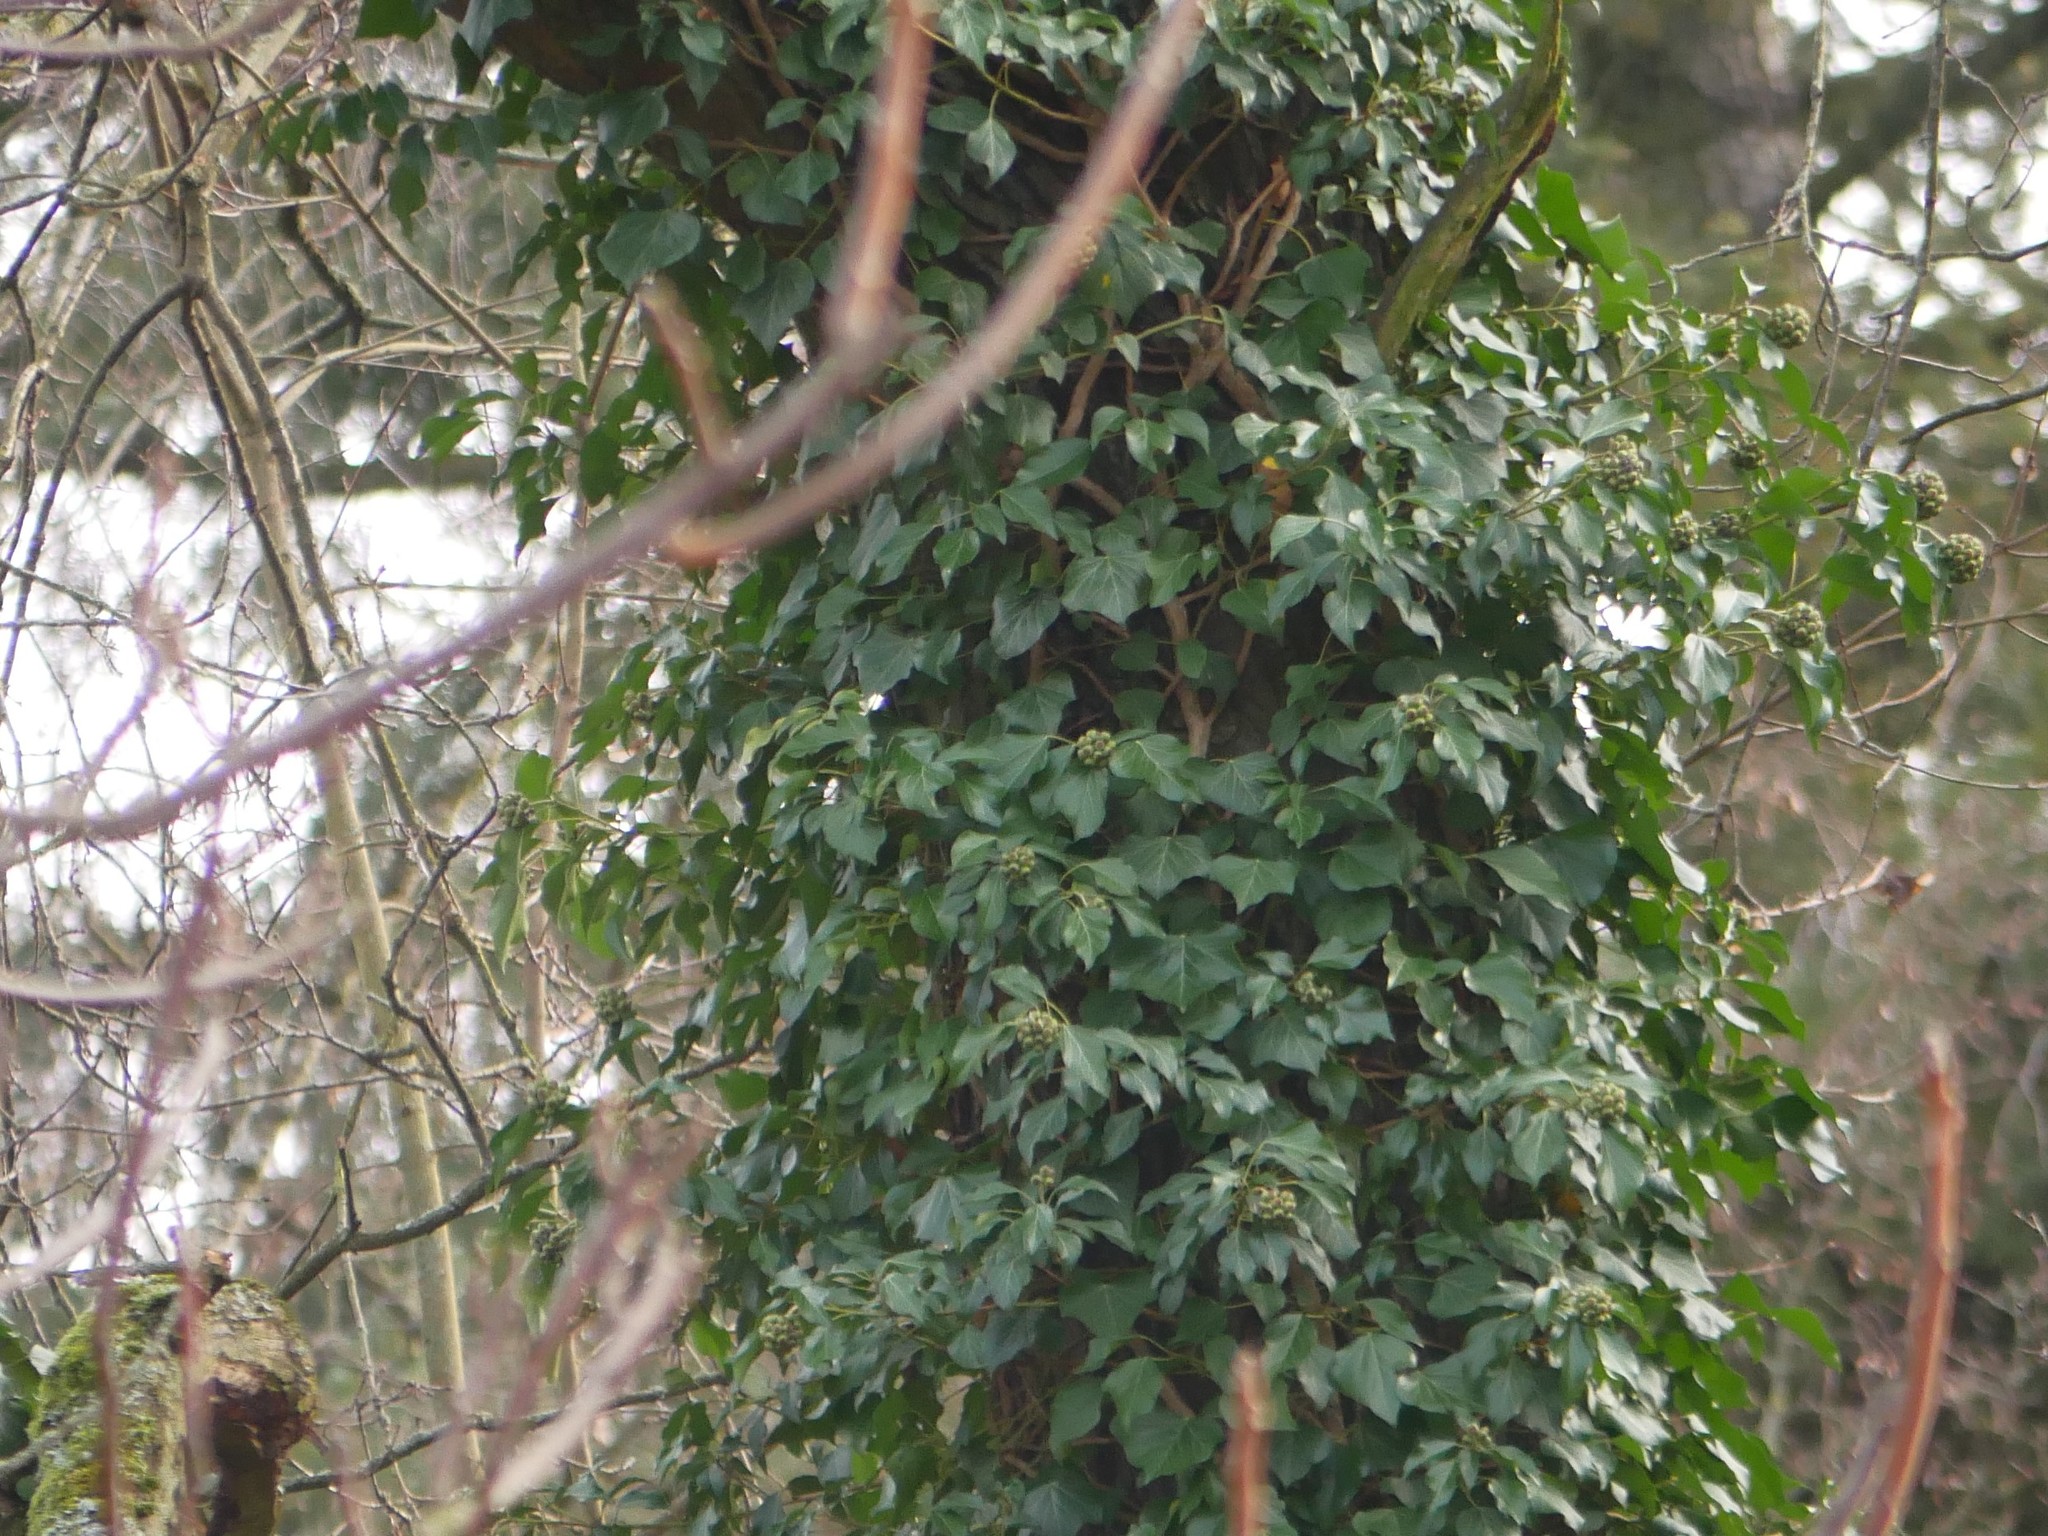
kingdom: Plantae
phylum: Tracheophyta
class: Magnoliopsida
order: Apiales
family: Araliaceae
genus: Hedera
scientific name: Hedera helix
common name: Ivy
